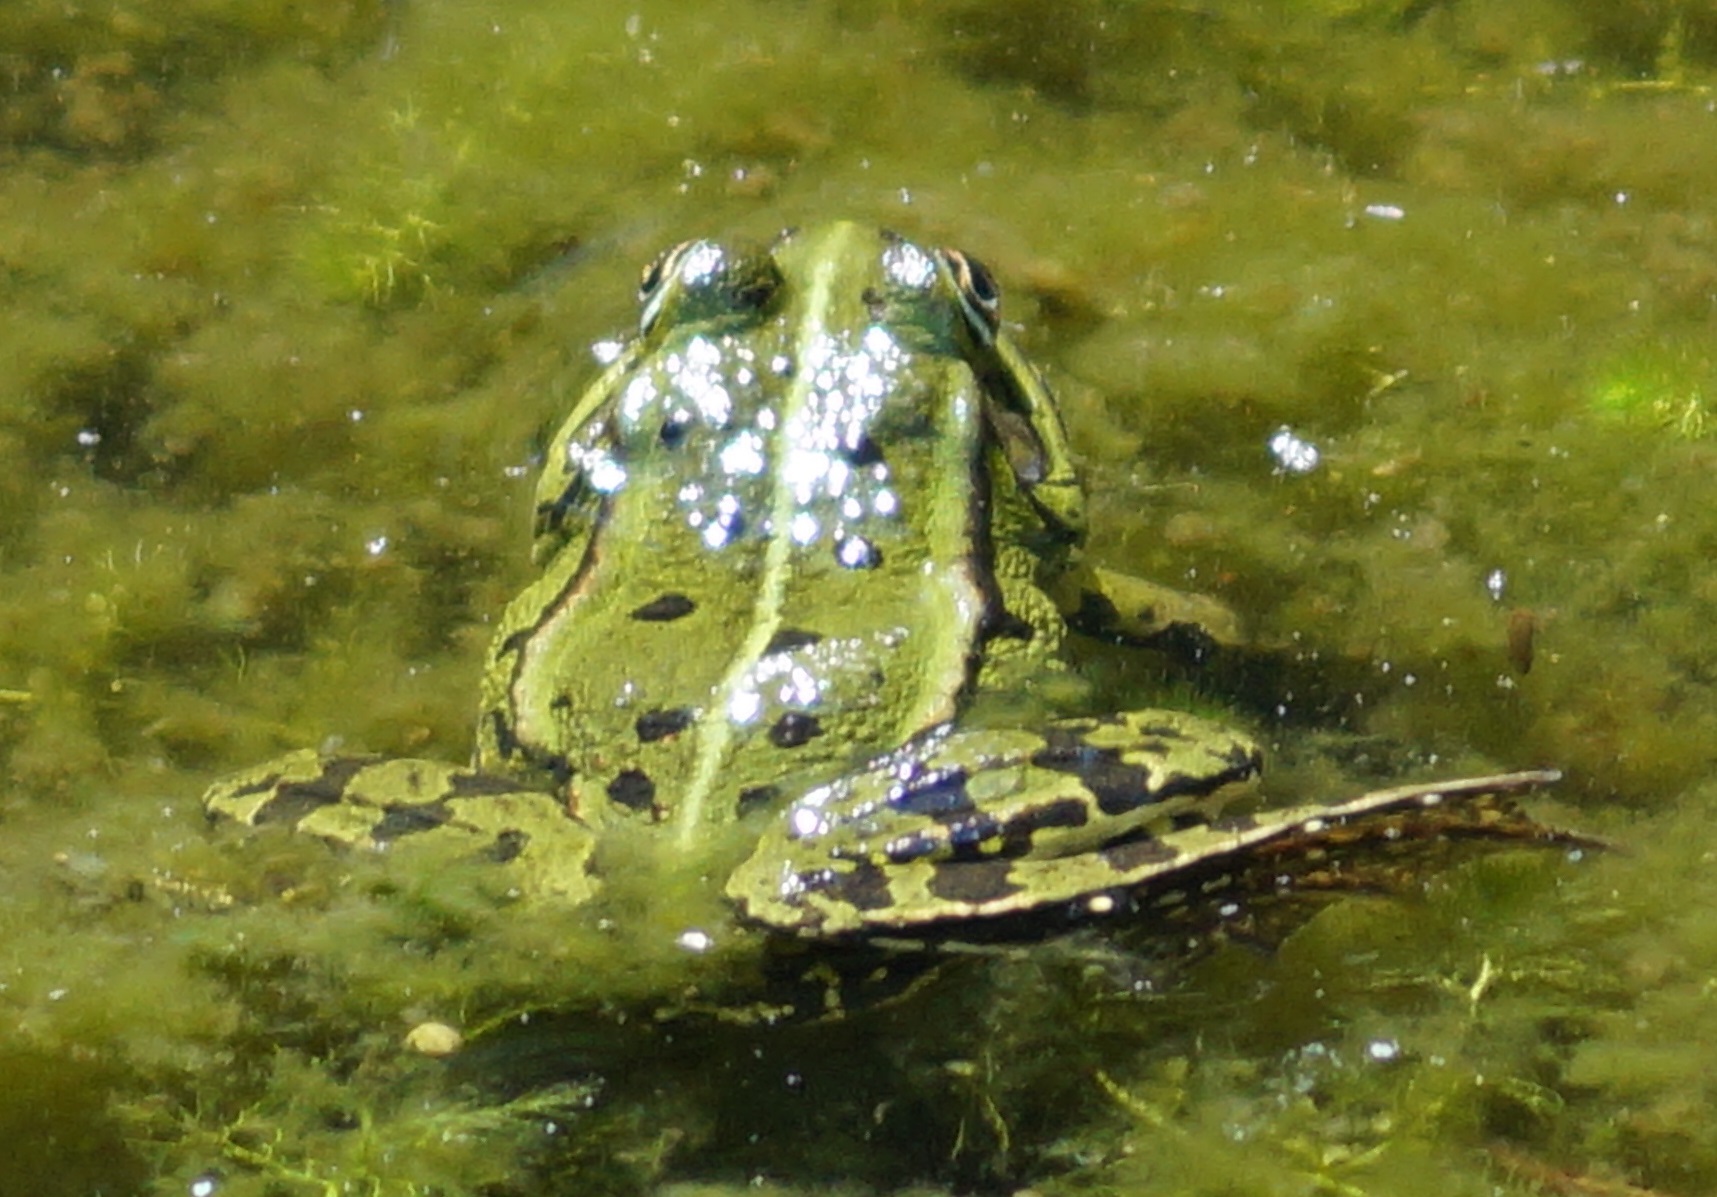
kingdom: Animalia
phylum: Chordata
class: Amphibia
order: Anura
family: Ranidae
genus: Pelophylax
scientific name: Pelophylax
